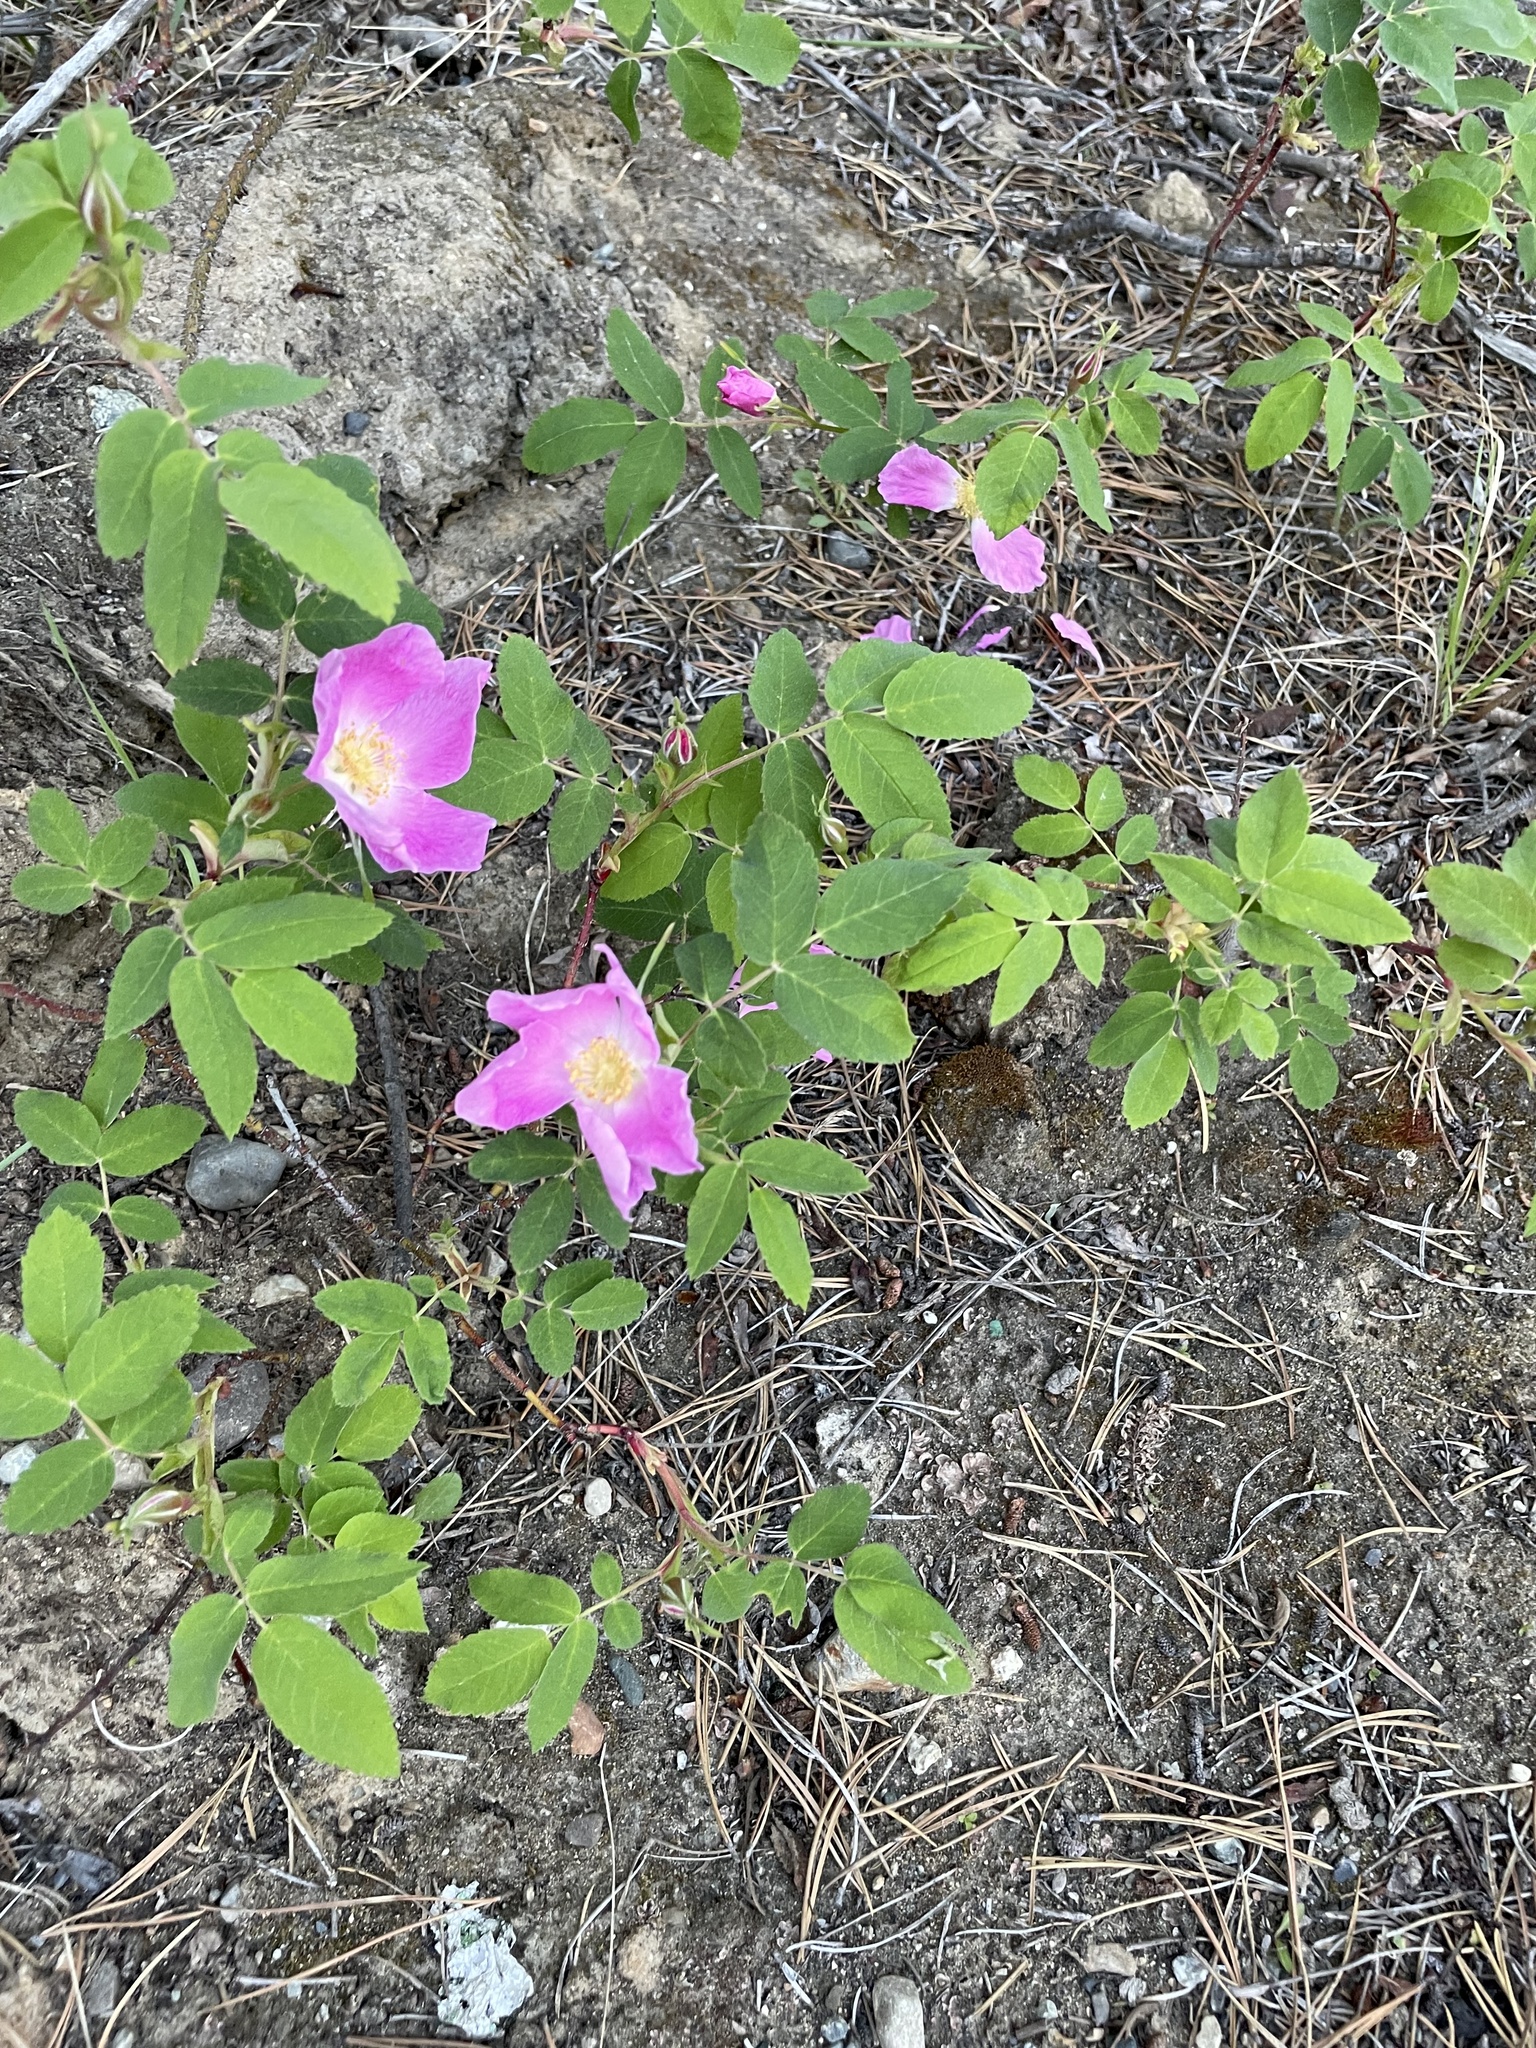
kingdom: Plantae
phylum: Tracheophyta
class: Magnoliopsida
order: Rosales
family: Rosaceae
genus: Rosa
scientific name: Rosa acicularis
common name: Prickly rose
